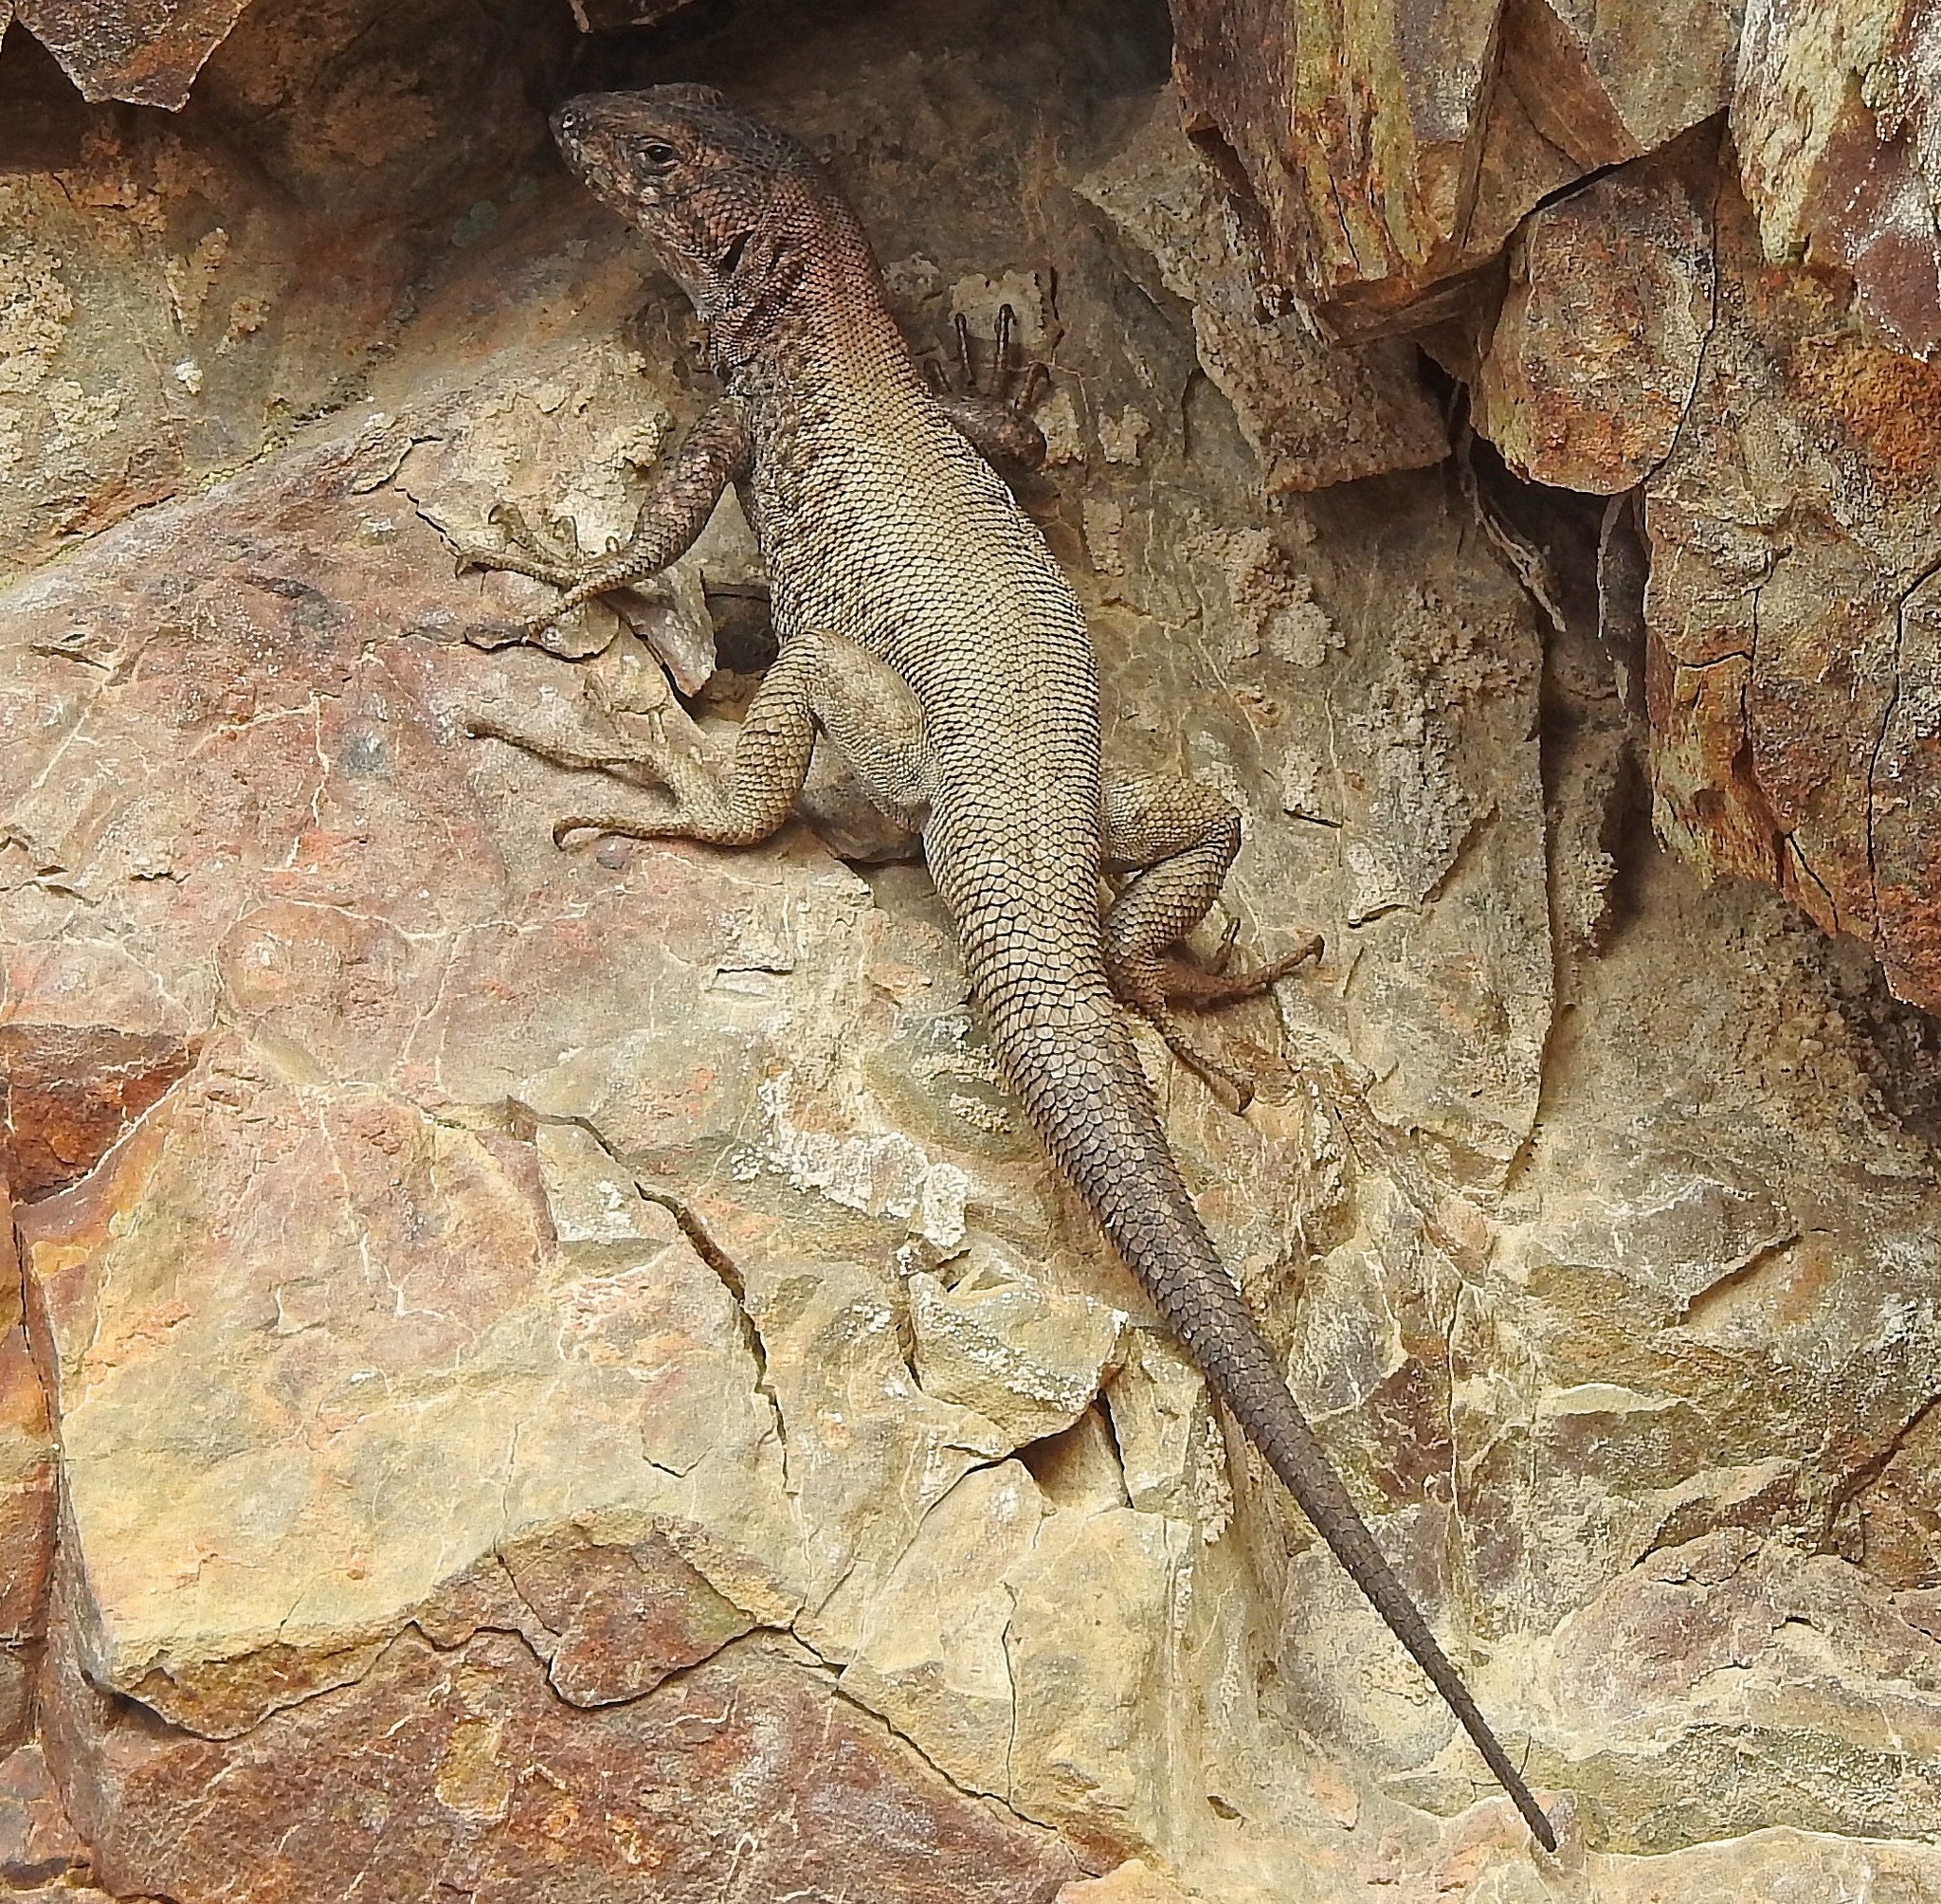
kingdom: Animalia
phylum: Chordata
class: Squamata
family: Liolaemidae
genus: Liolaemus
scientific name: Liolaemus dicktracyi
